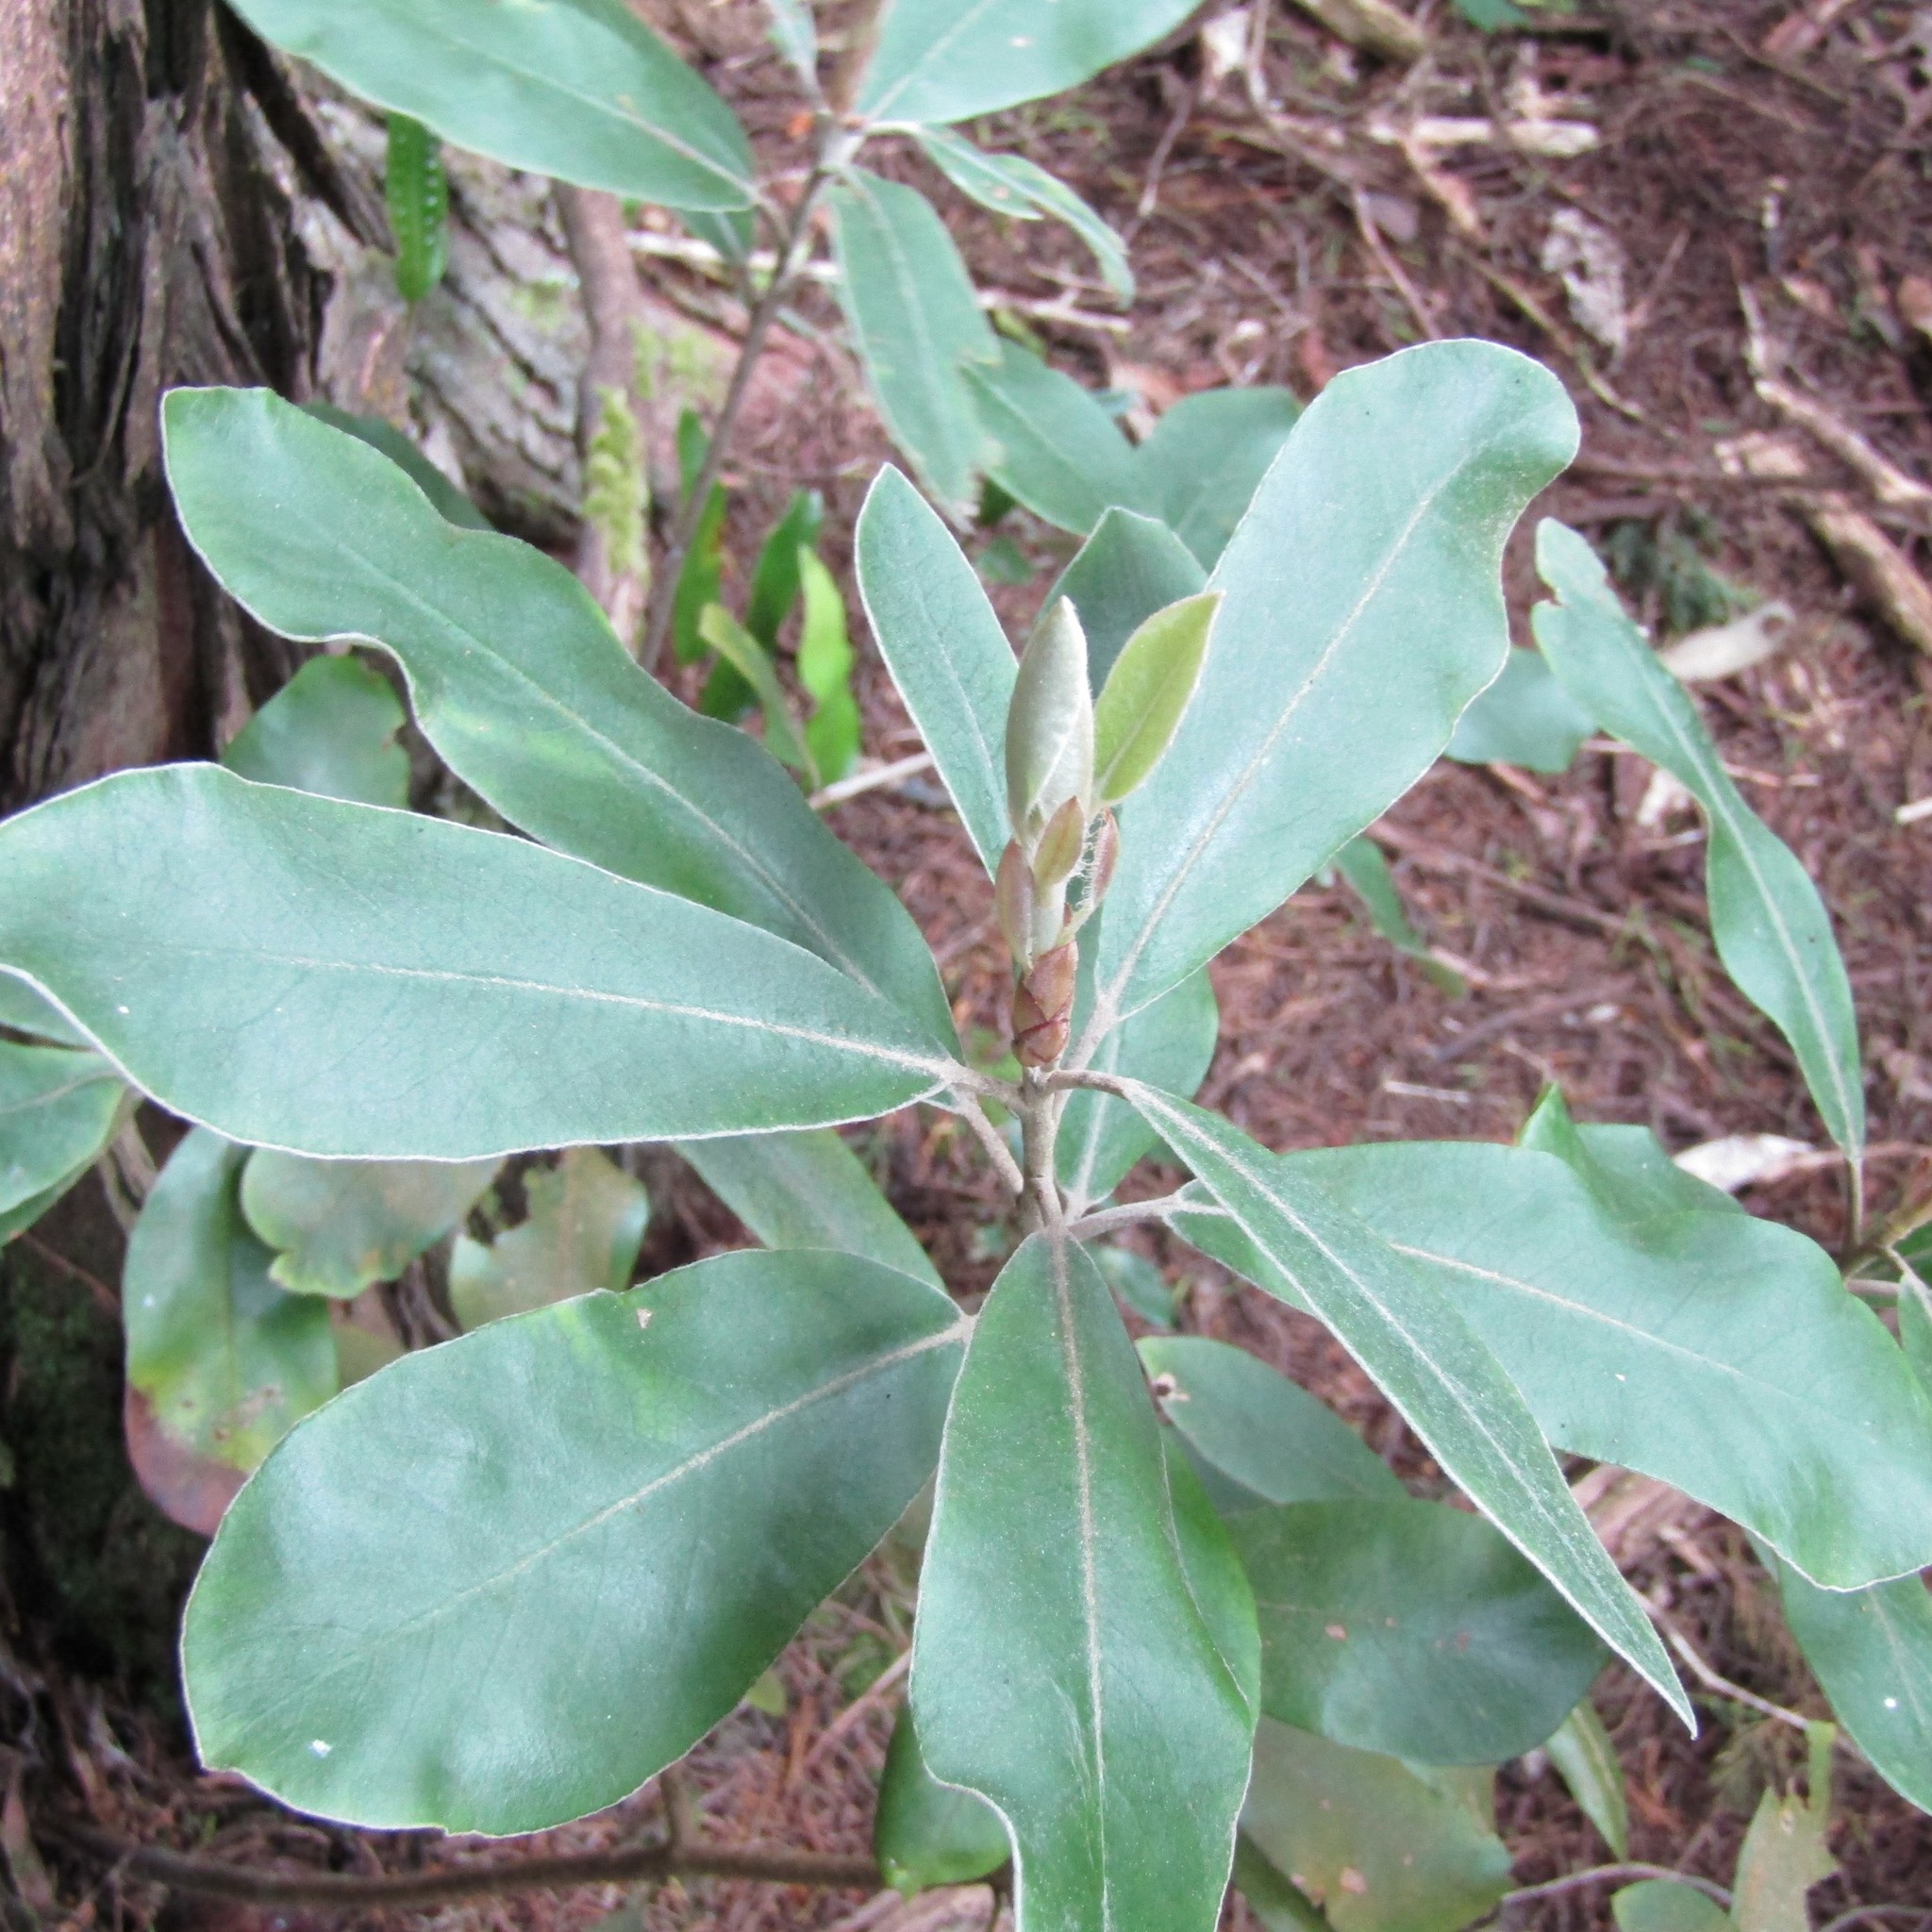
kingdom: Plantae
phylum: Tracheophyta
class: Magnoliopsida
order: Apiales
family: Pittosporaceae
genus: Pittosporum
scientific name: Pittosporum ralphii
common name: Ralph's desertwillow
